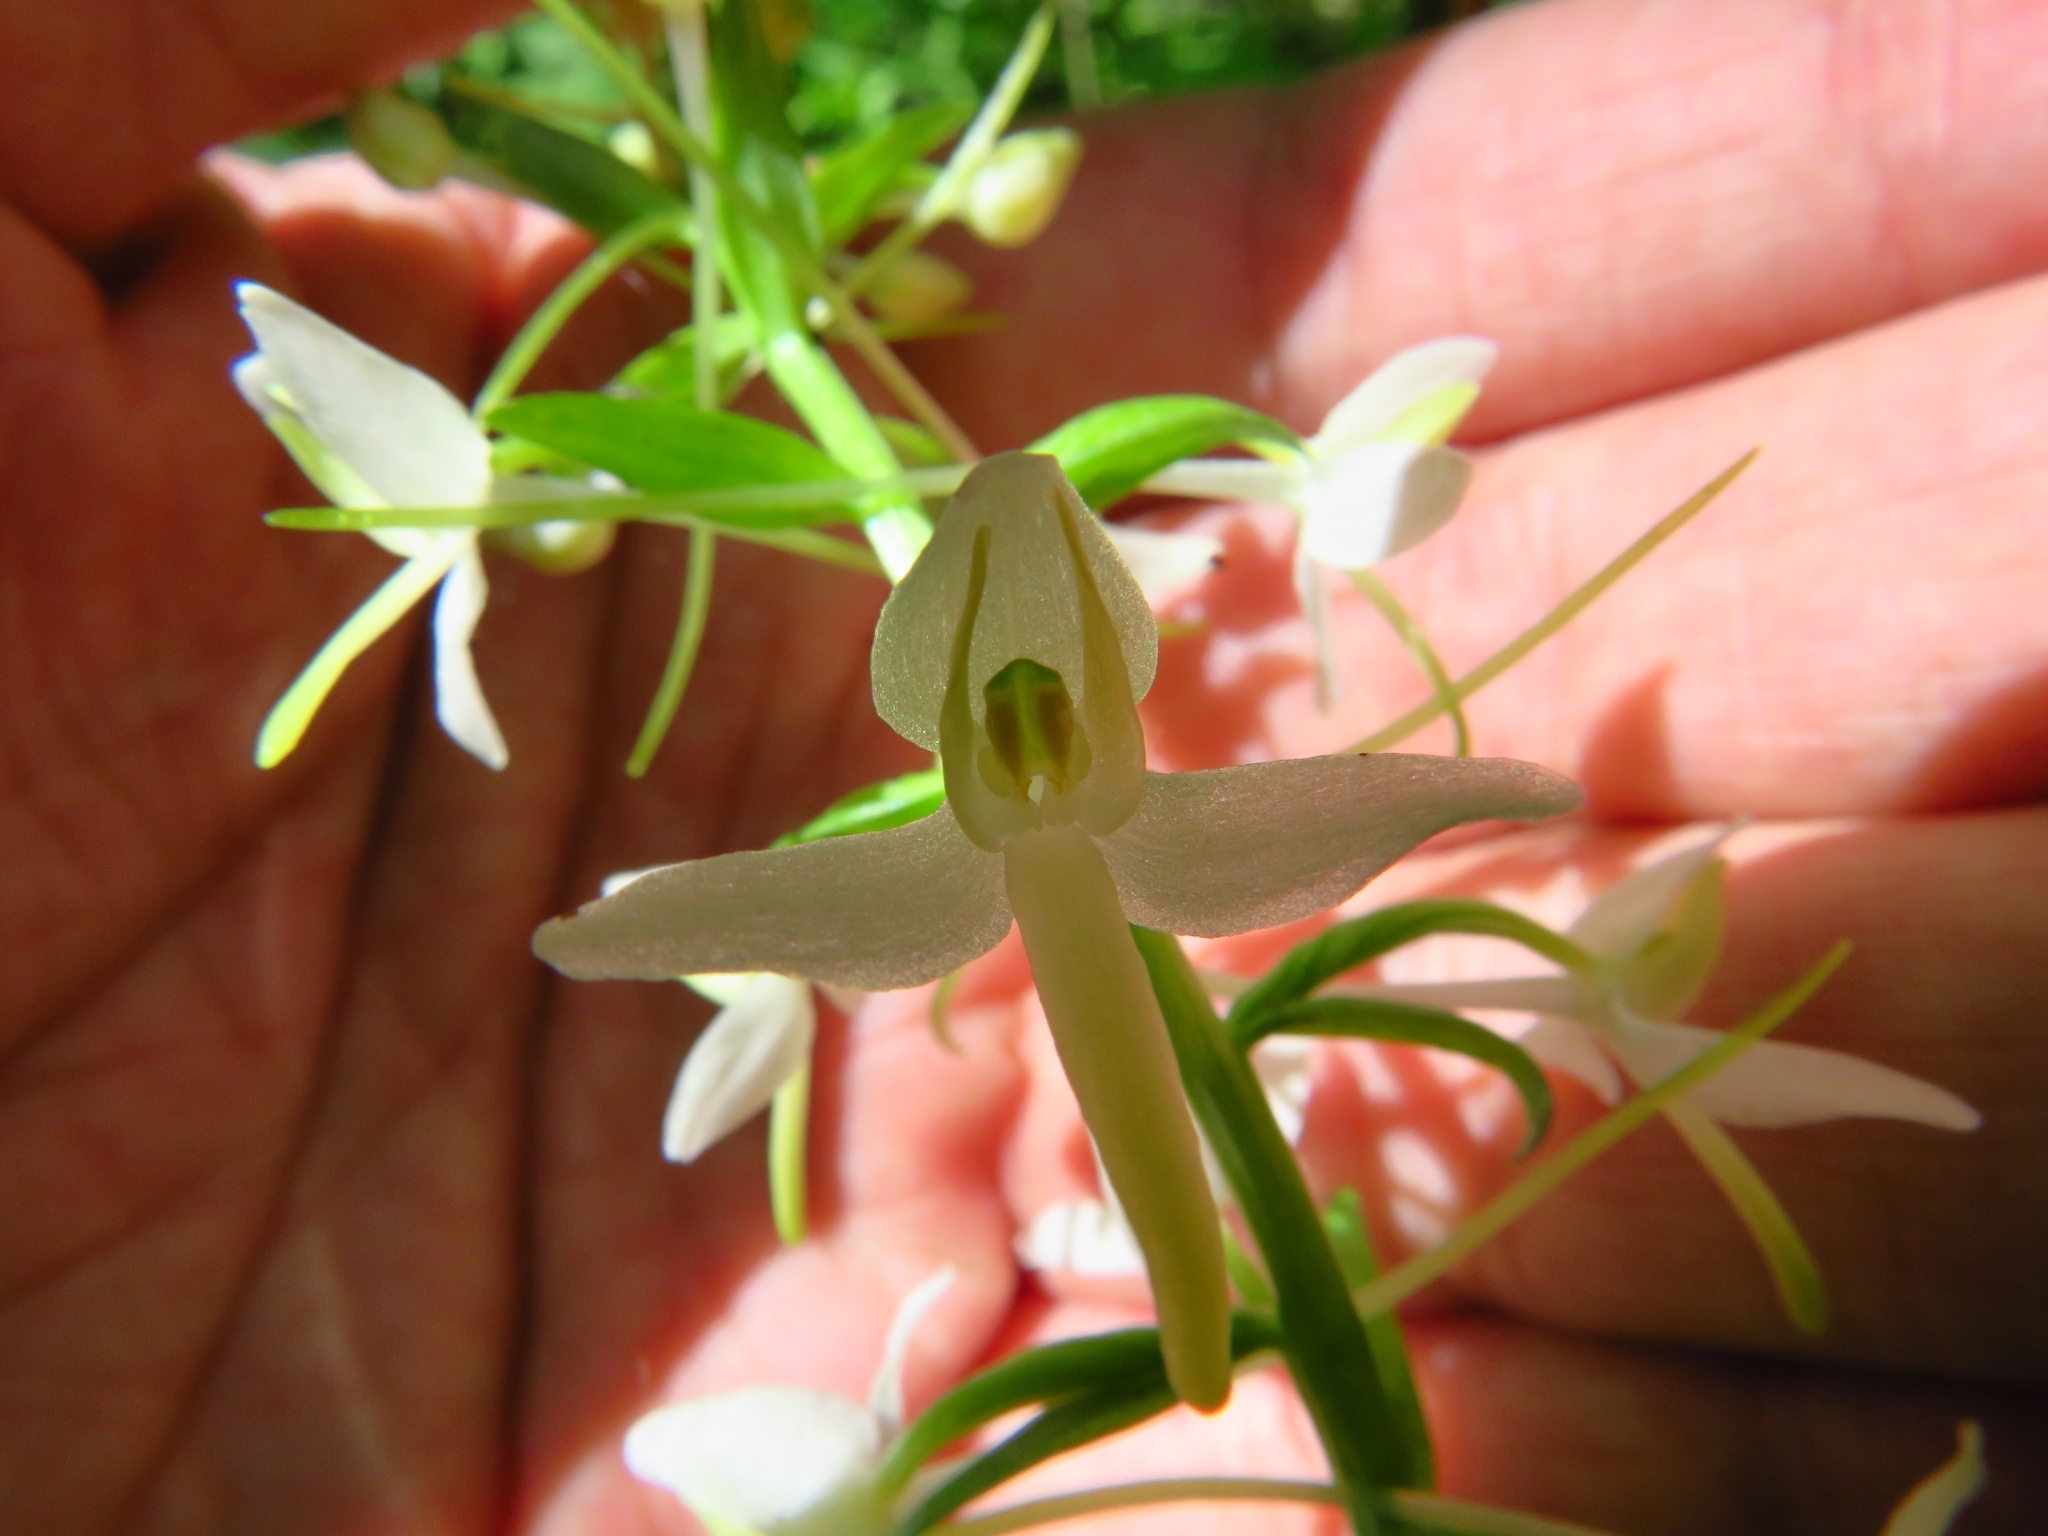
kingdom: Plantae
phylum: Tracheophyta
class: Liliopsida
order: Asparagales
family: Orchidaceae
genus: Platanthera
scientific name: Platanthera bifolia
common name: Lesser butterfly-orchid
